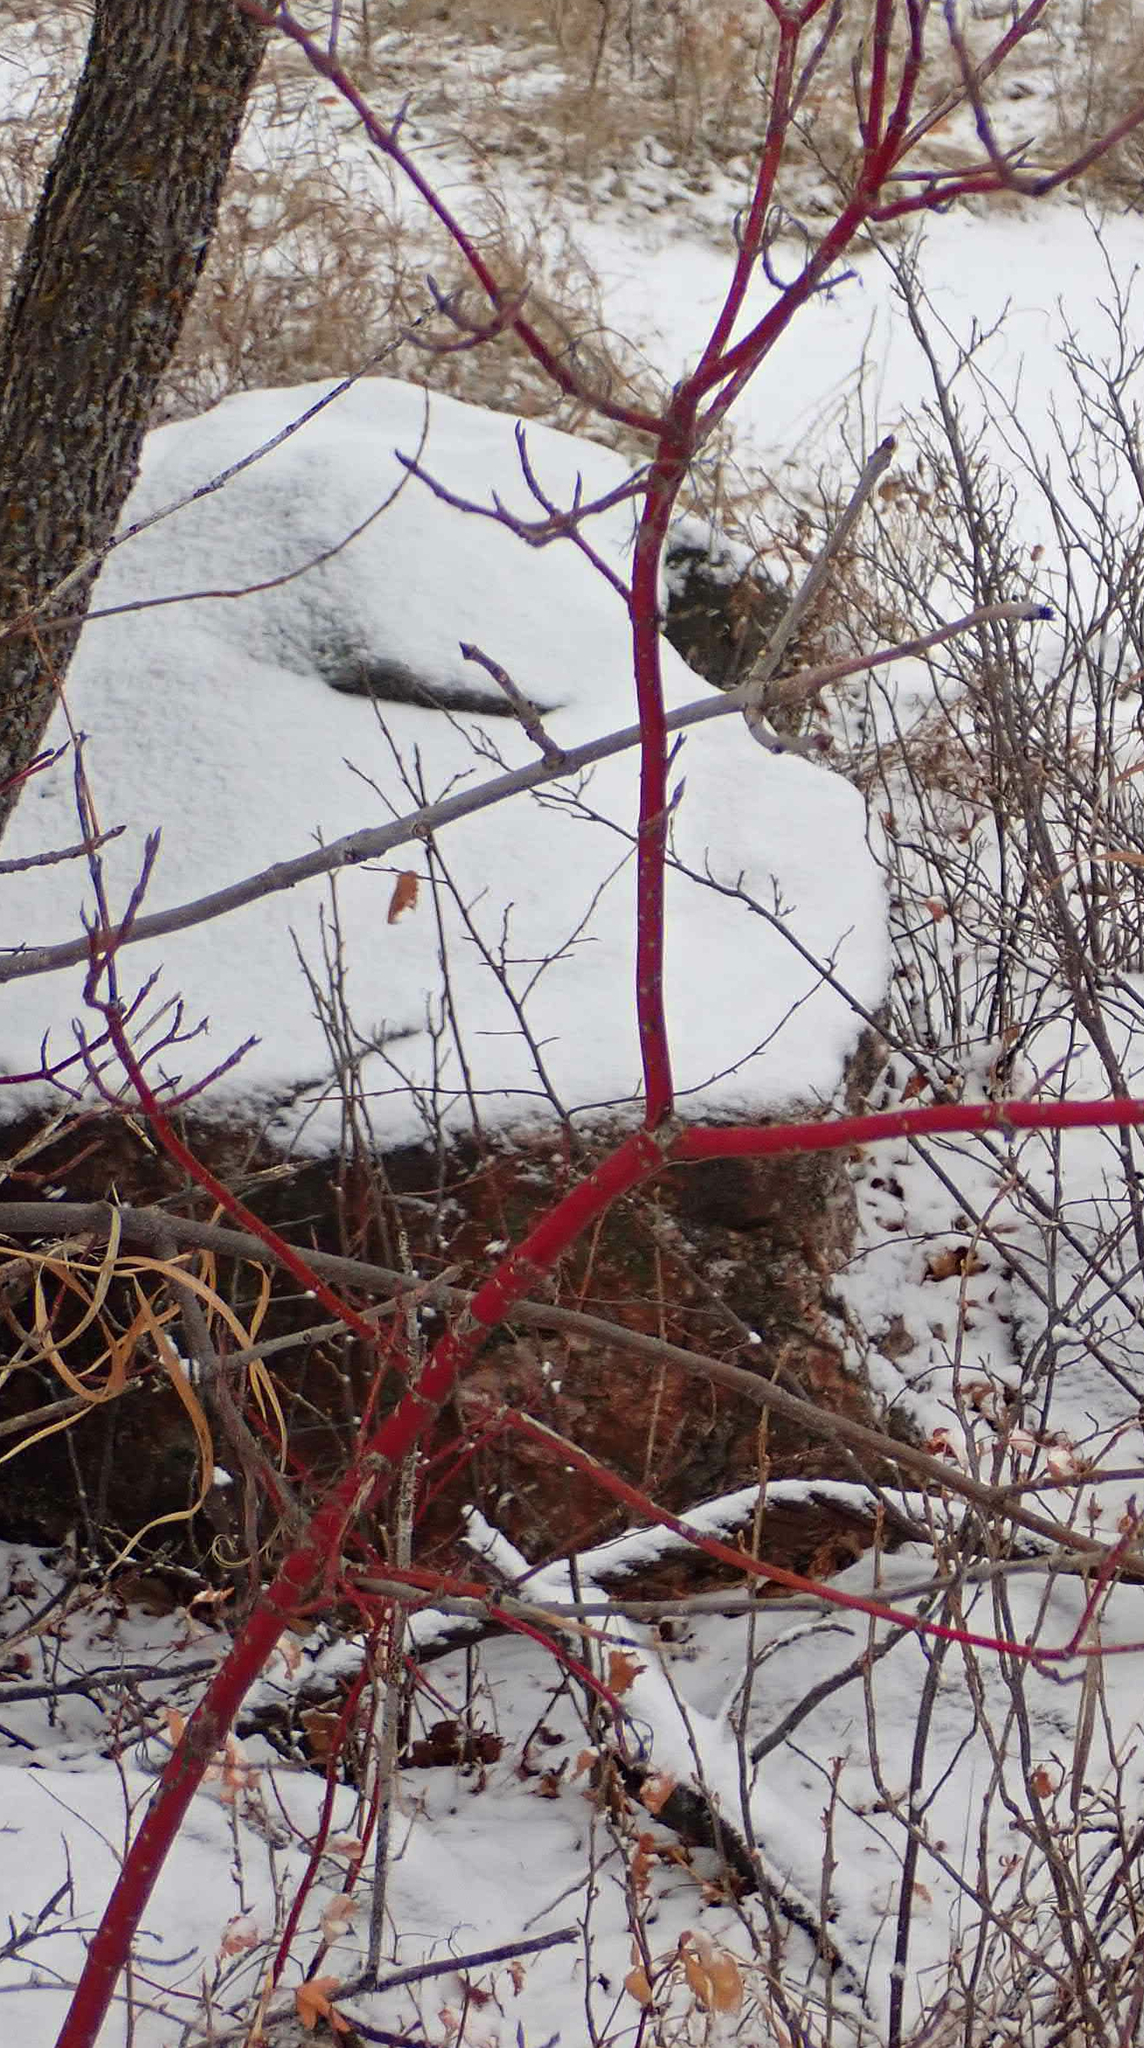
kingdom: Plantae
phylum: Tracheophyta
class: Magnoliopsida
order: Cornales
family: Cornaceae
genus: Cornus
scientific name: Cornus sericea
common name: Red-osier dogwood
